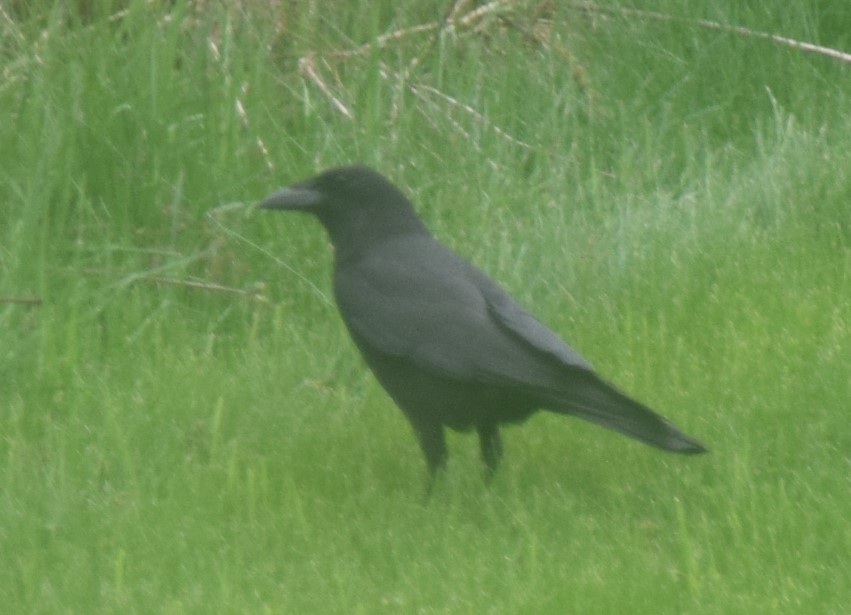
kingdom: Animalia
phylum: Chordata
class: Aves
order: Passeriformes
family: Corvidae
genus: Corvus
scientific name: Corvus brachyrhynchos
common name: American crow
